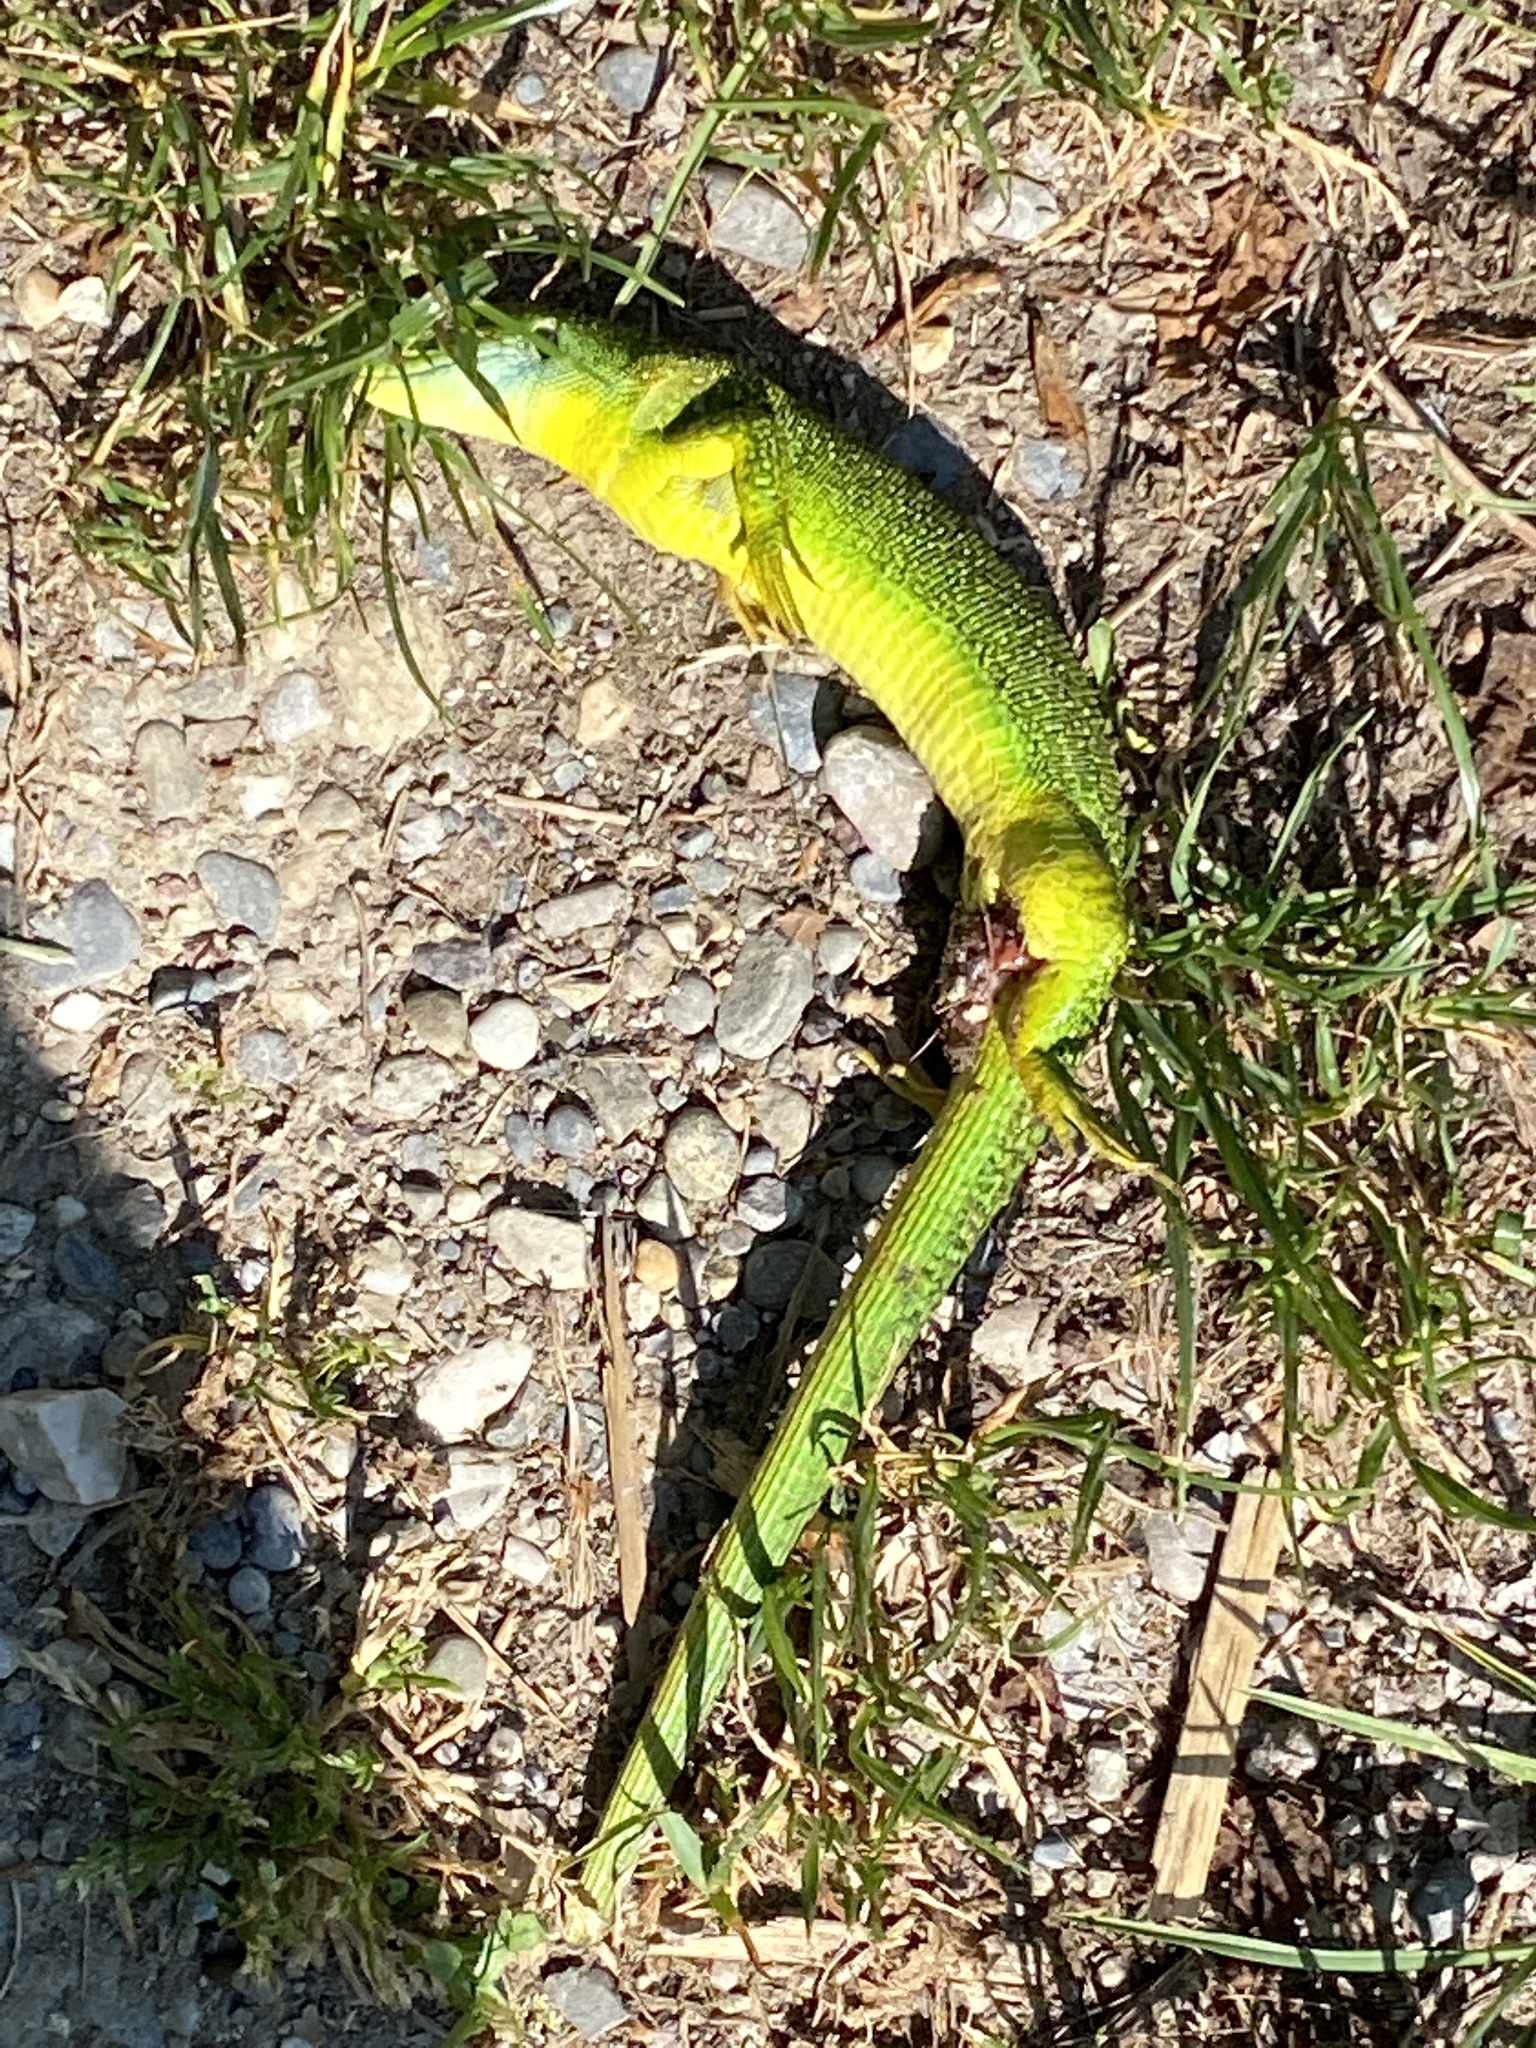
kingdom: Animalia
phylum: Chordata
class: Squamata
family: Lacertidae
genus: Lacerta
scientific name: Lacerta bilineata
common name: Western green lizard
